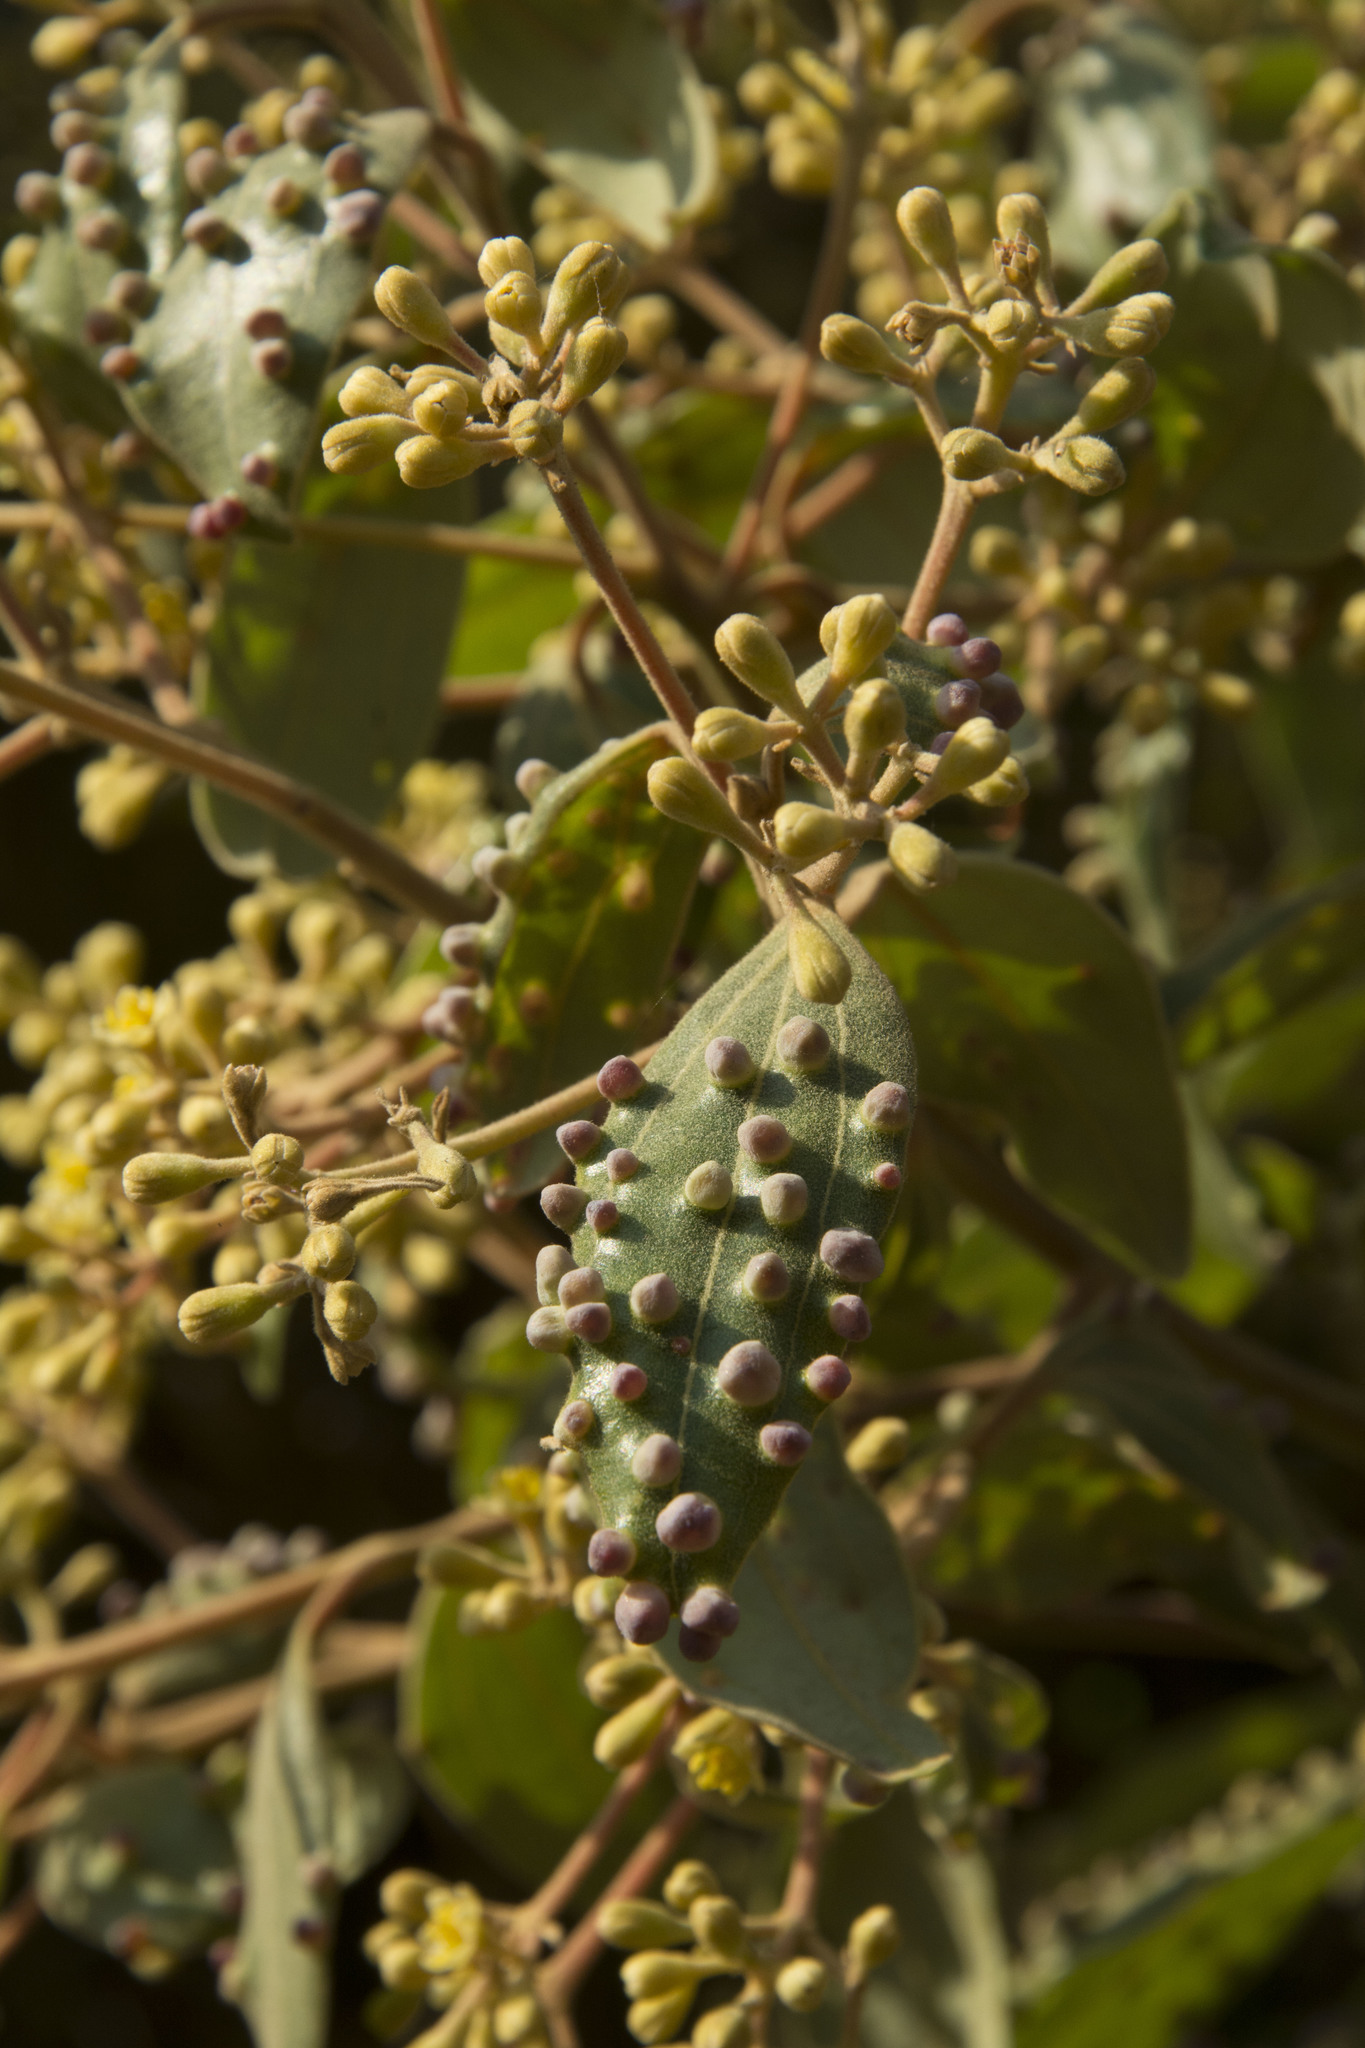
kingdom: Plantae
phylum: Tracheophyta
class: Magnoliopsida
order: Laurales
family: Lauraceae
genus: Cinnamomum
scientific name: Cinnamomum sulphuratum
